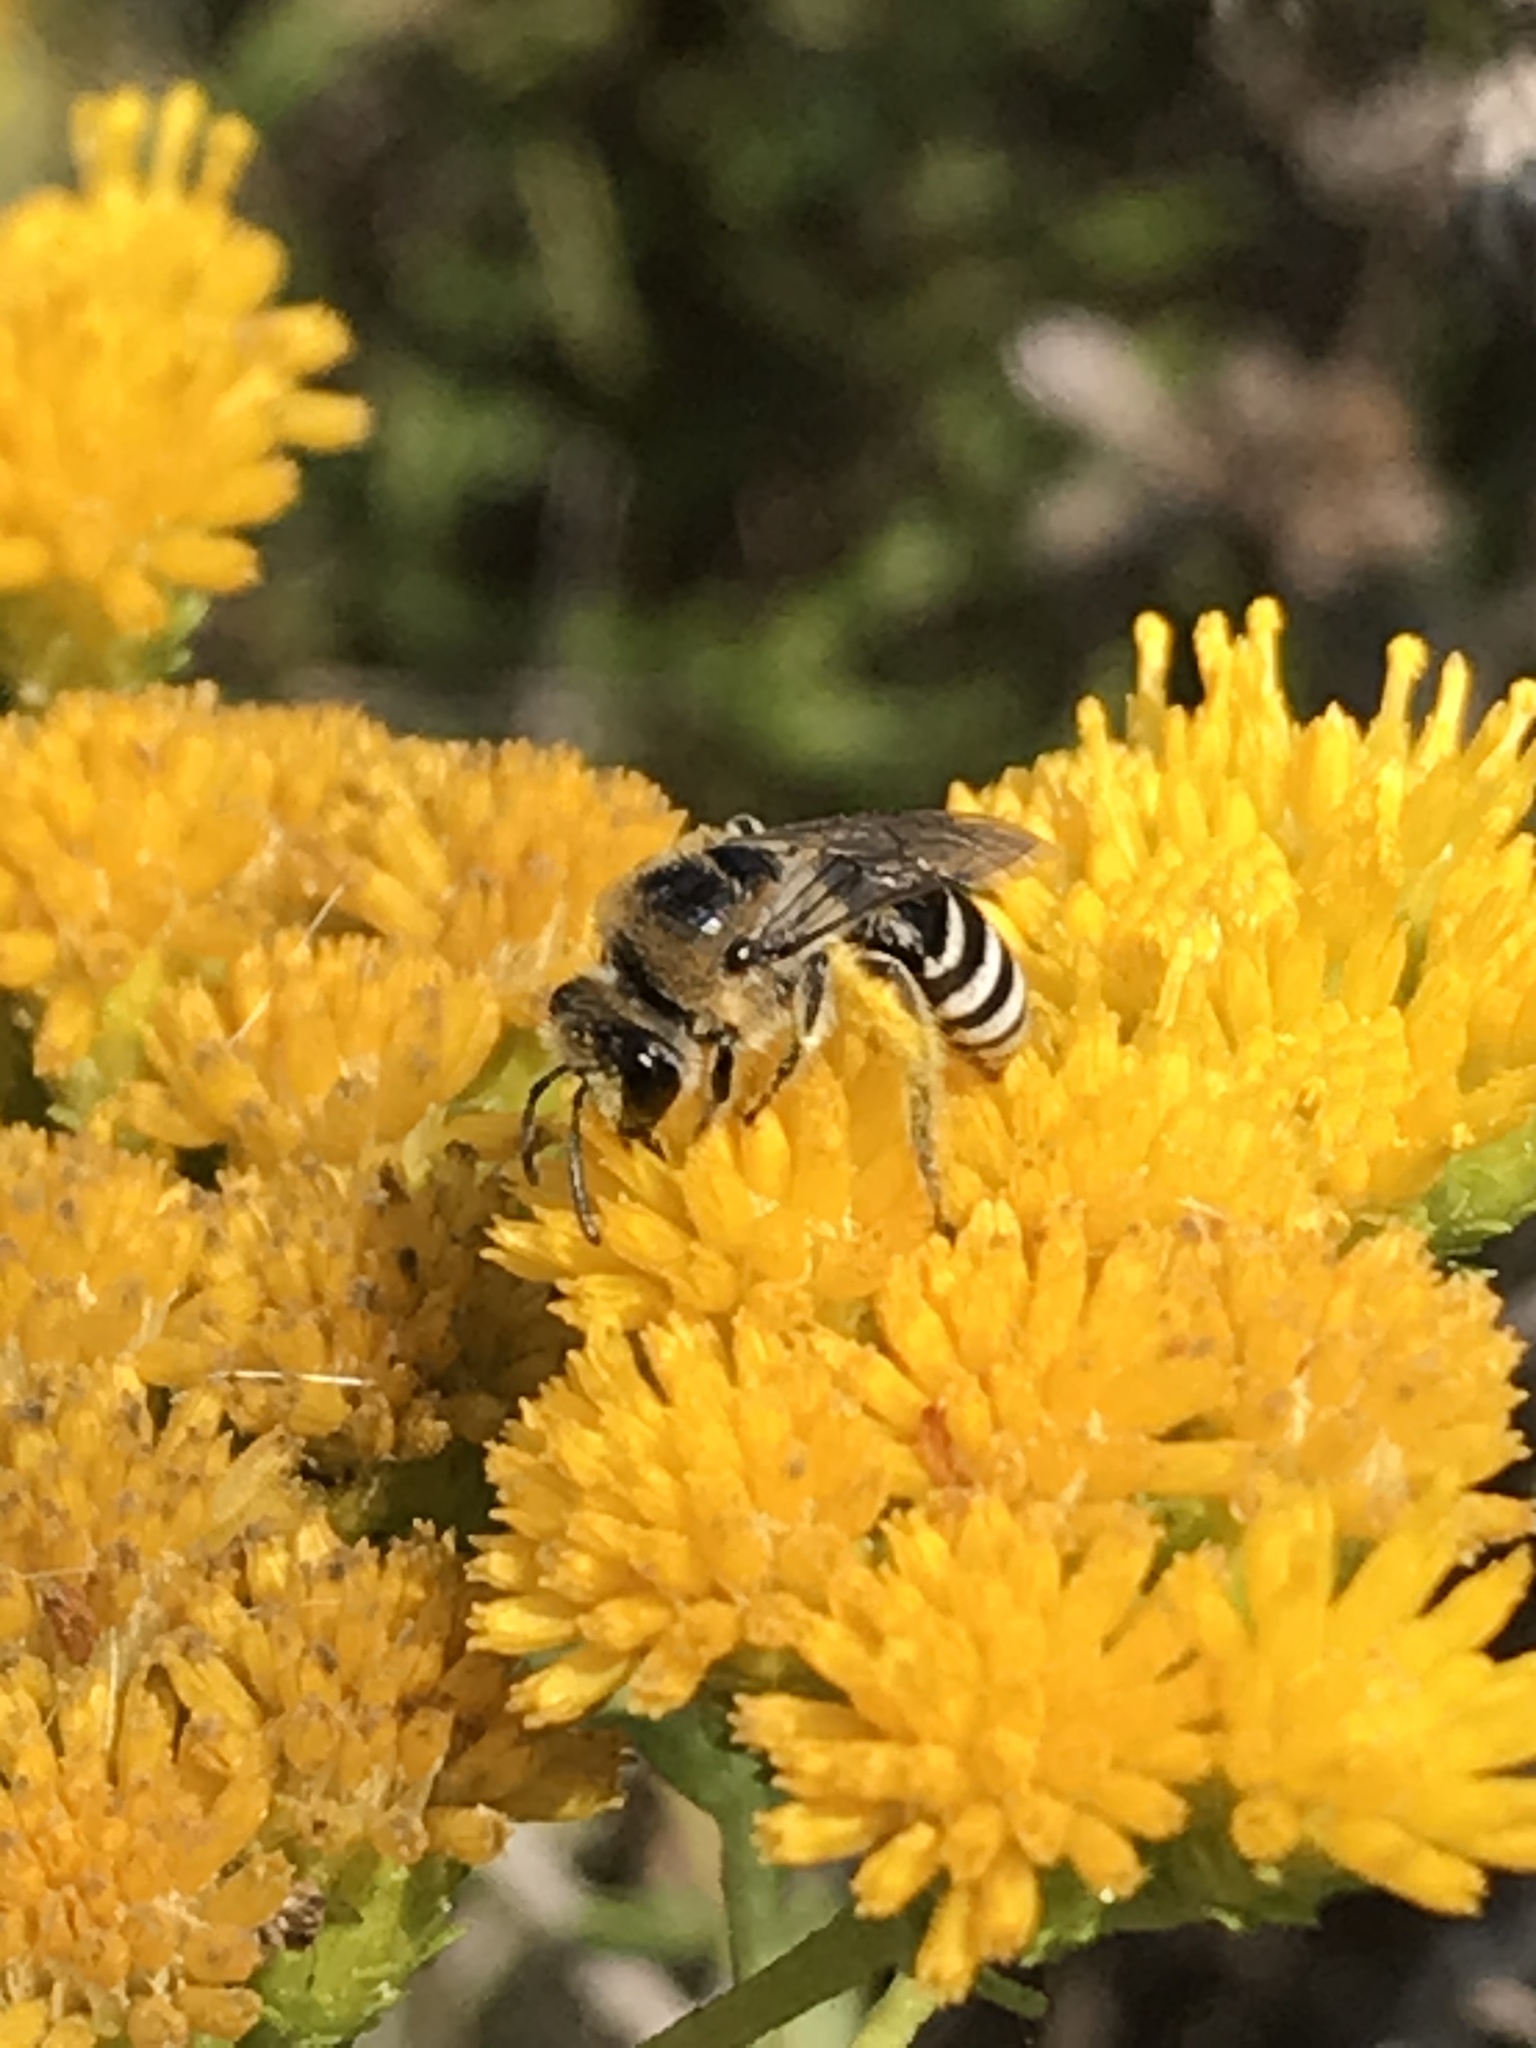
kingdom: Animalia
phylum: Arthropoda
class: Insecta
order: Hymenoptera
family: Colletidae
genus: Colletes
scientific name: Colletes
